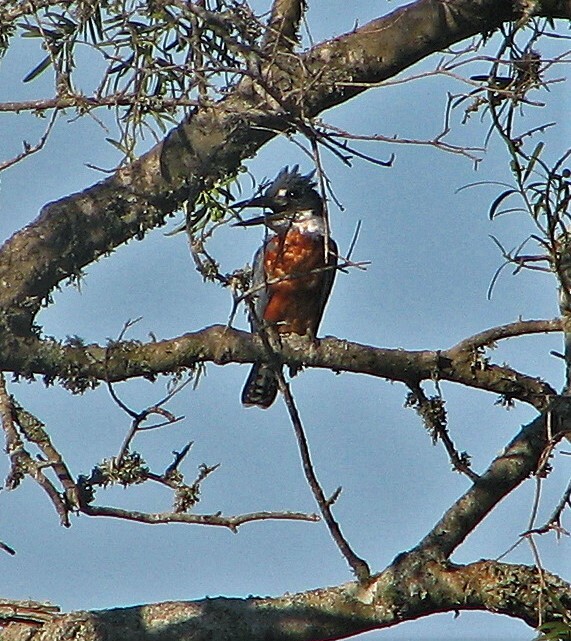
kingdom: Animalia
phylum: Chordata
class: Aves
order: Coraciiformes
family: Alcedinidae
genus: Megaceryle
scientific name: Megaceryle torquata
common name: Ringed kingfisher
